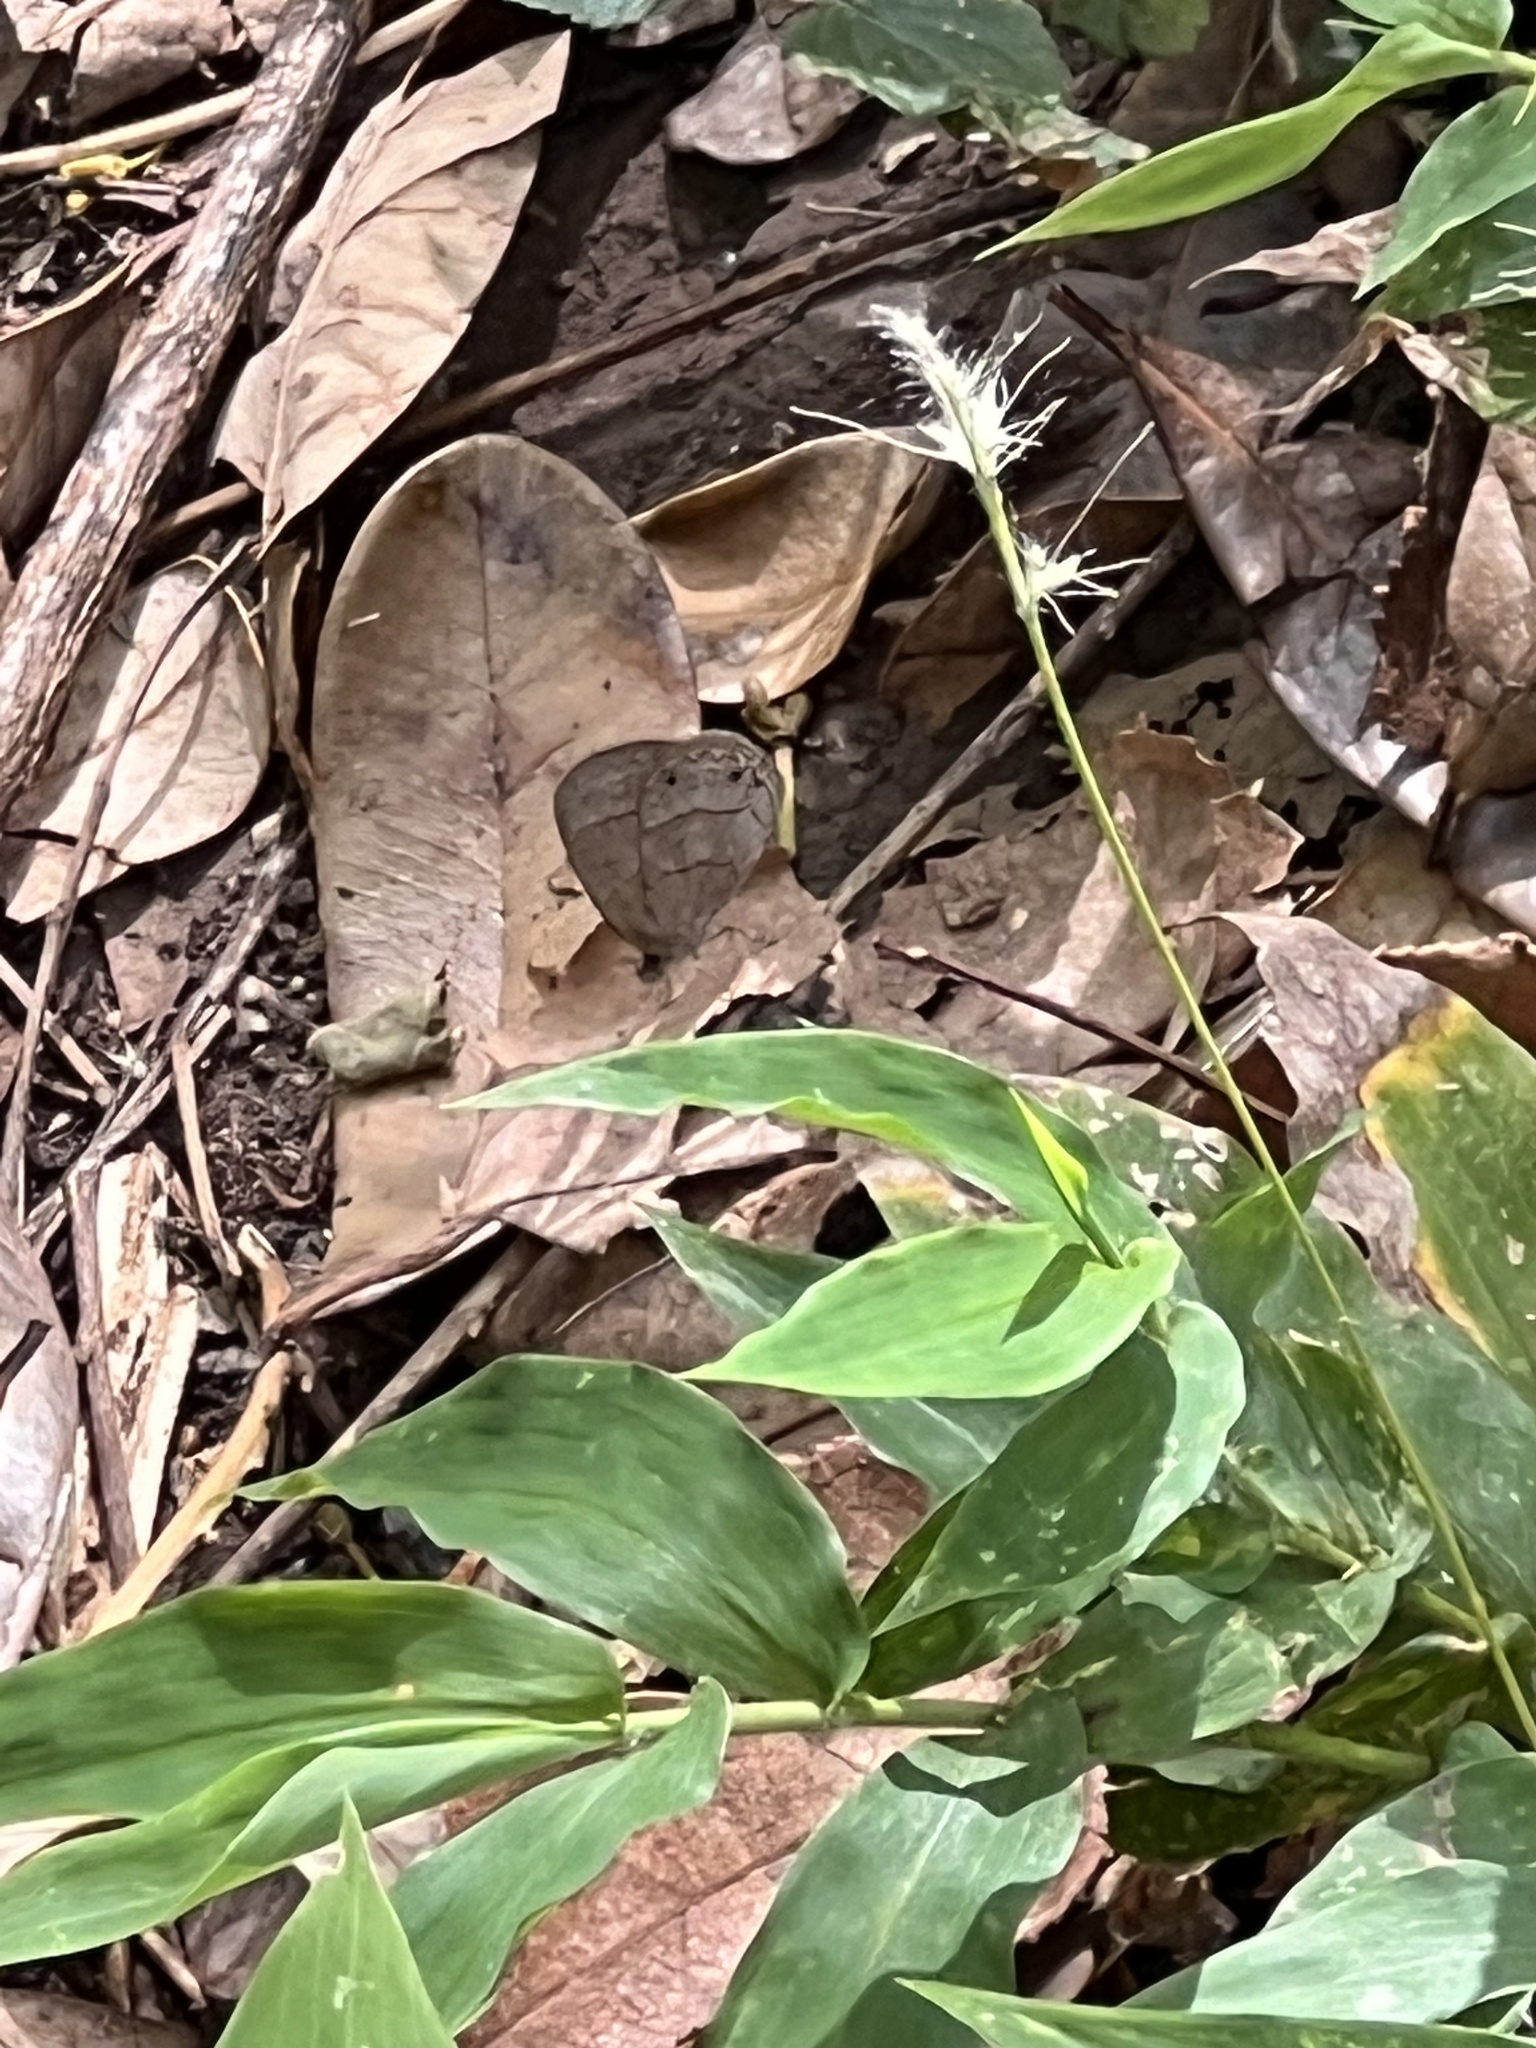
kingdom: Animalia
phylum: Arthropoda
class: Insecta
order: Lepidoptera
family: Nymphalidae
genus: Hermeuptychia
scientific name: Hermeuptychia hermes
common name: Hermes satyr
